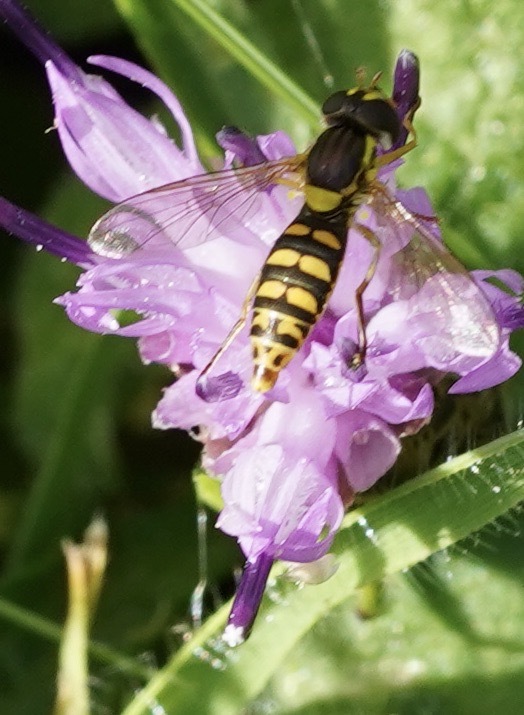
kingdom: Animalia
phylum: Arthropoda
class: Insecta
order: Diptera
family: Syrphidae
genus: Sphaerophoria
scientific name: Sphaerophoria
